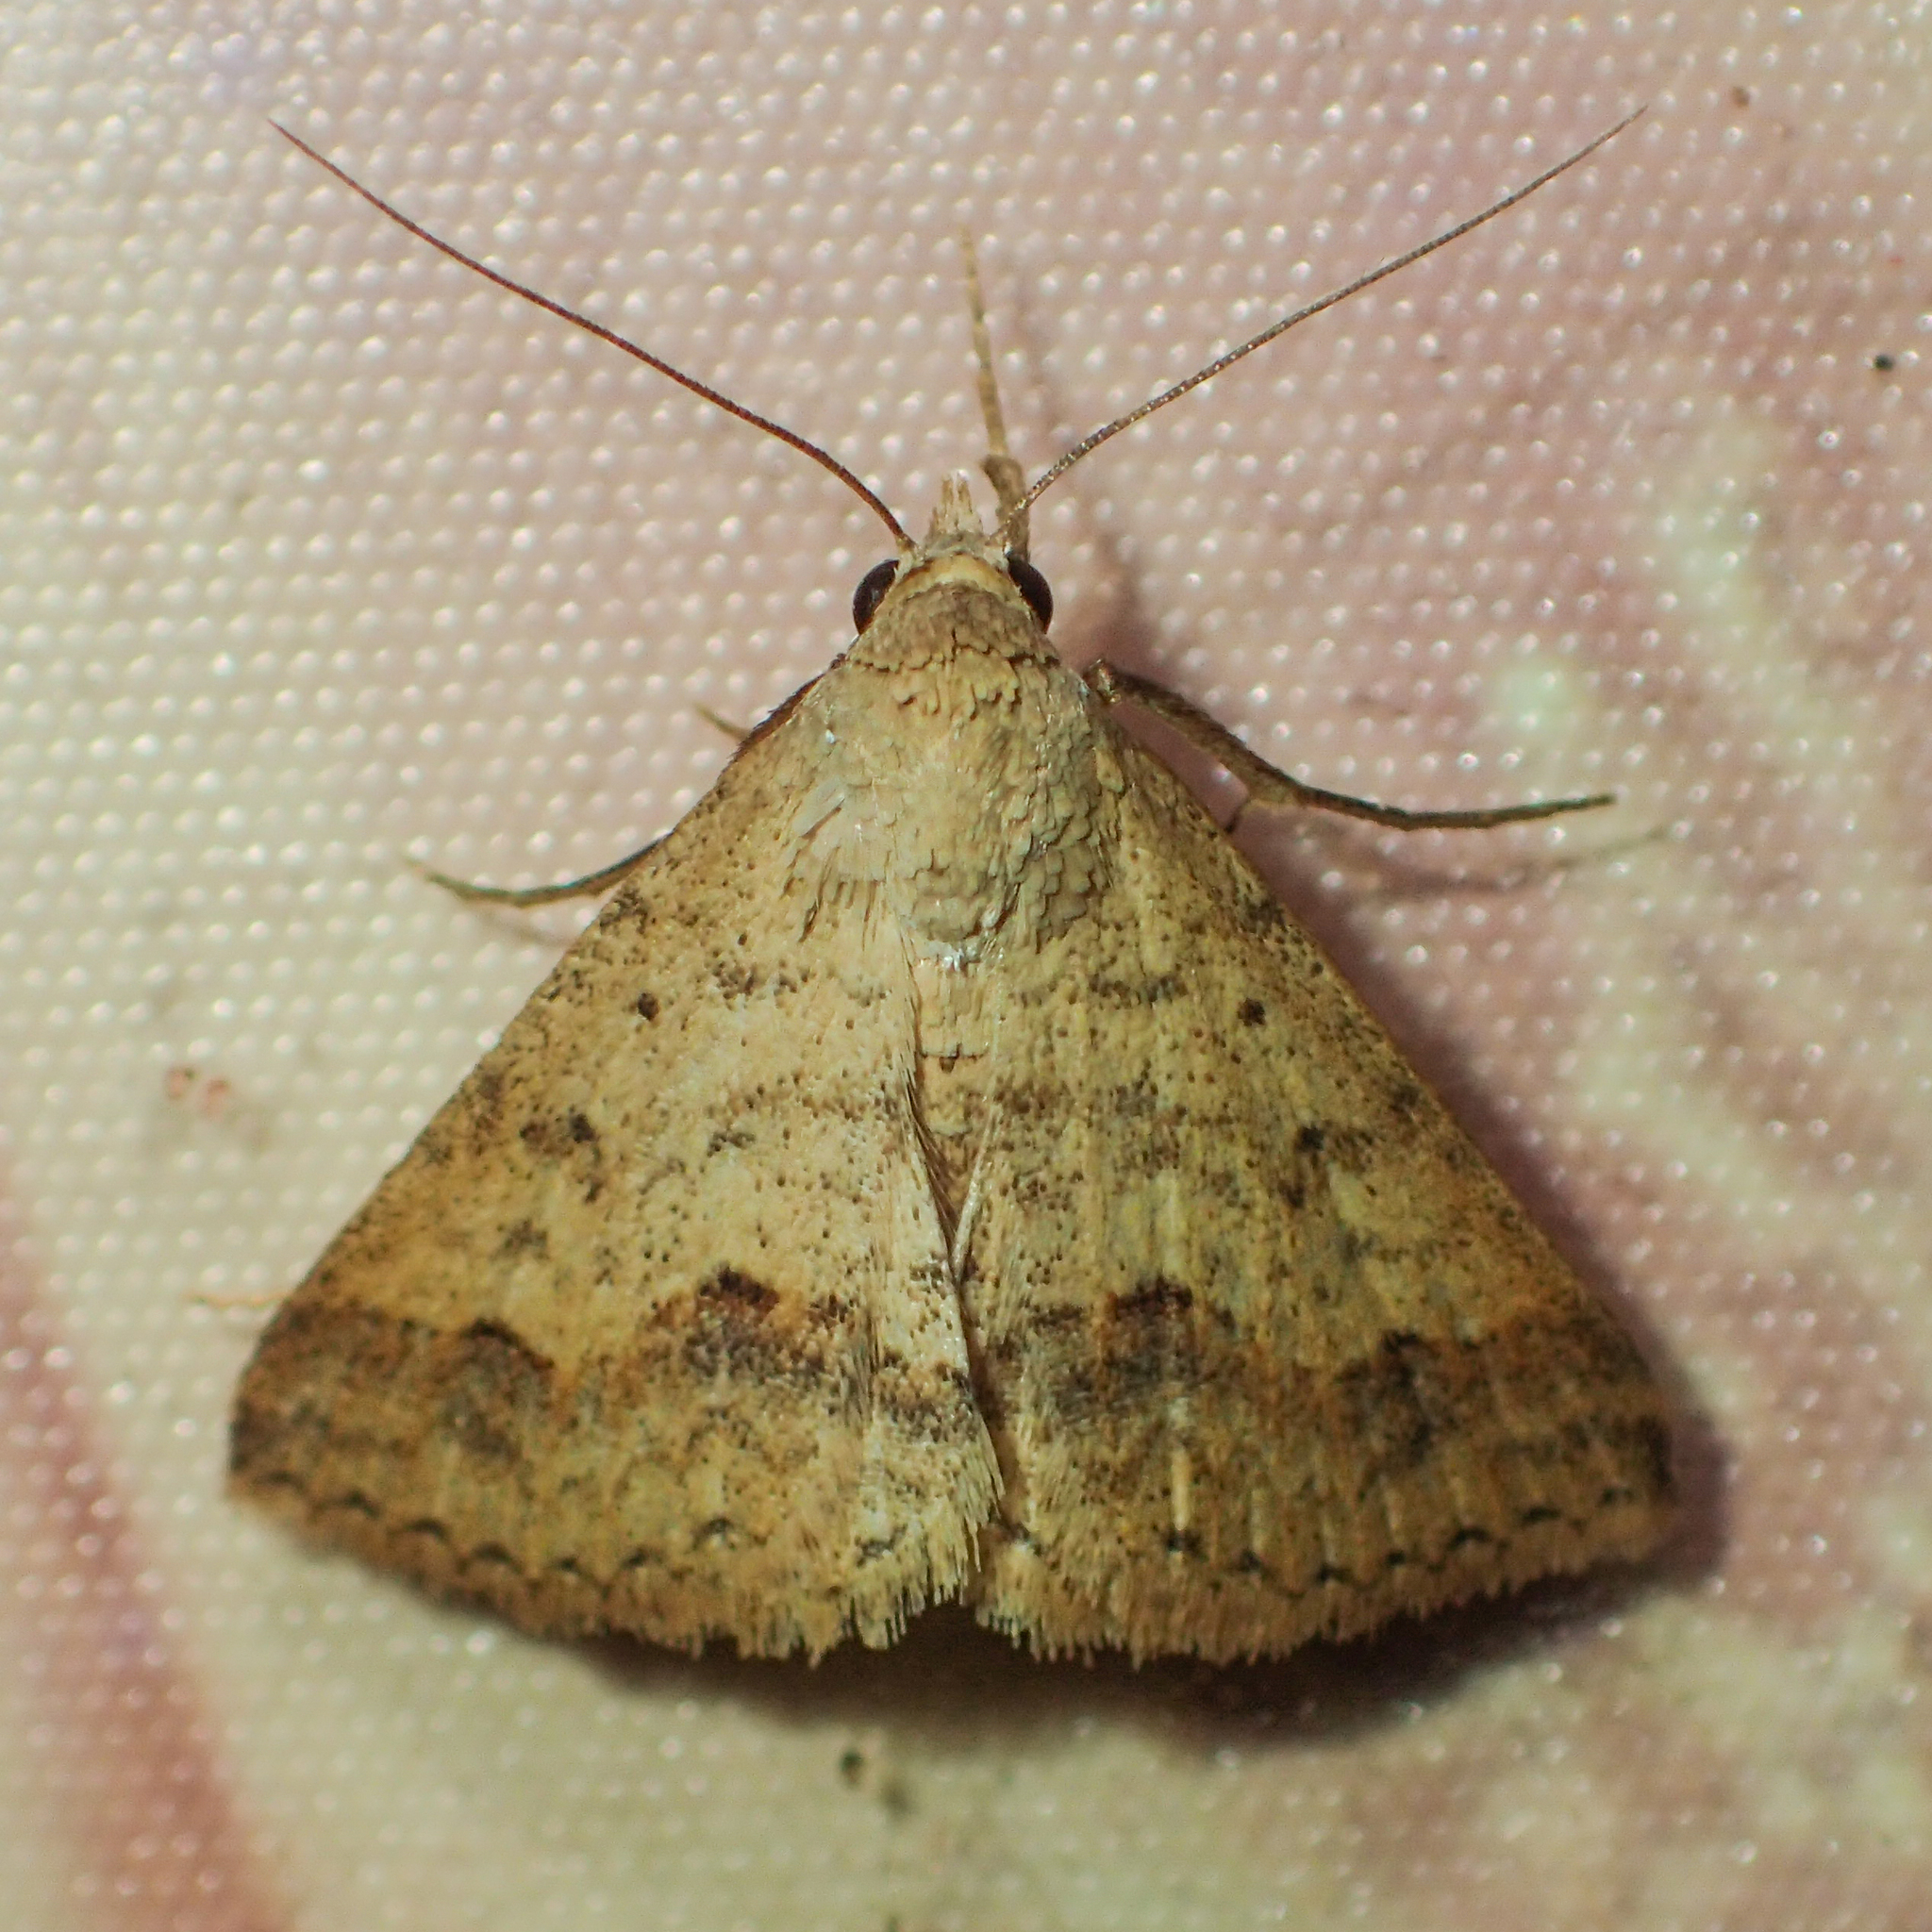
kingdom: Animalia
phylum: Arthropoda
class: Insecta
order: Lepidoptera
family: Erebidae
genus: Gesonia
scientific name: Gesonia obeditalis
